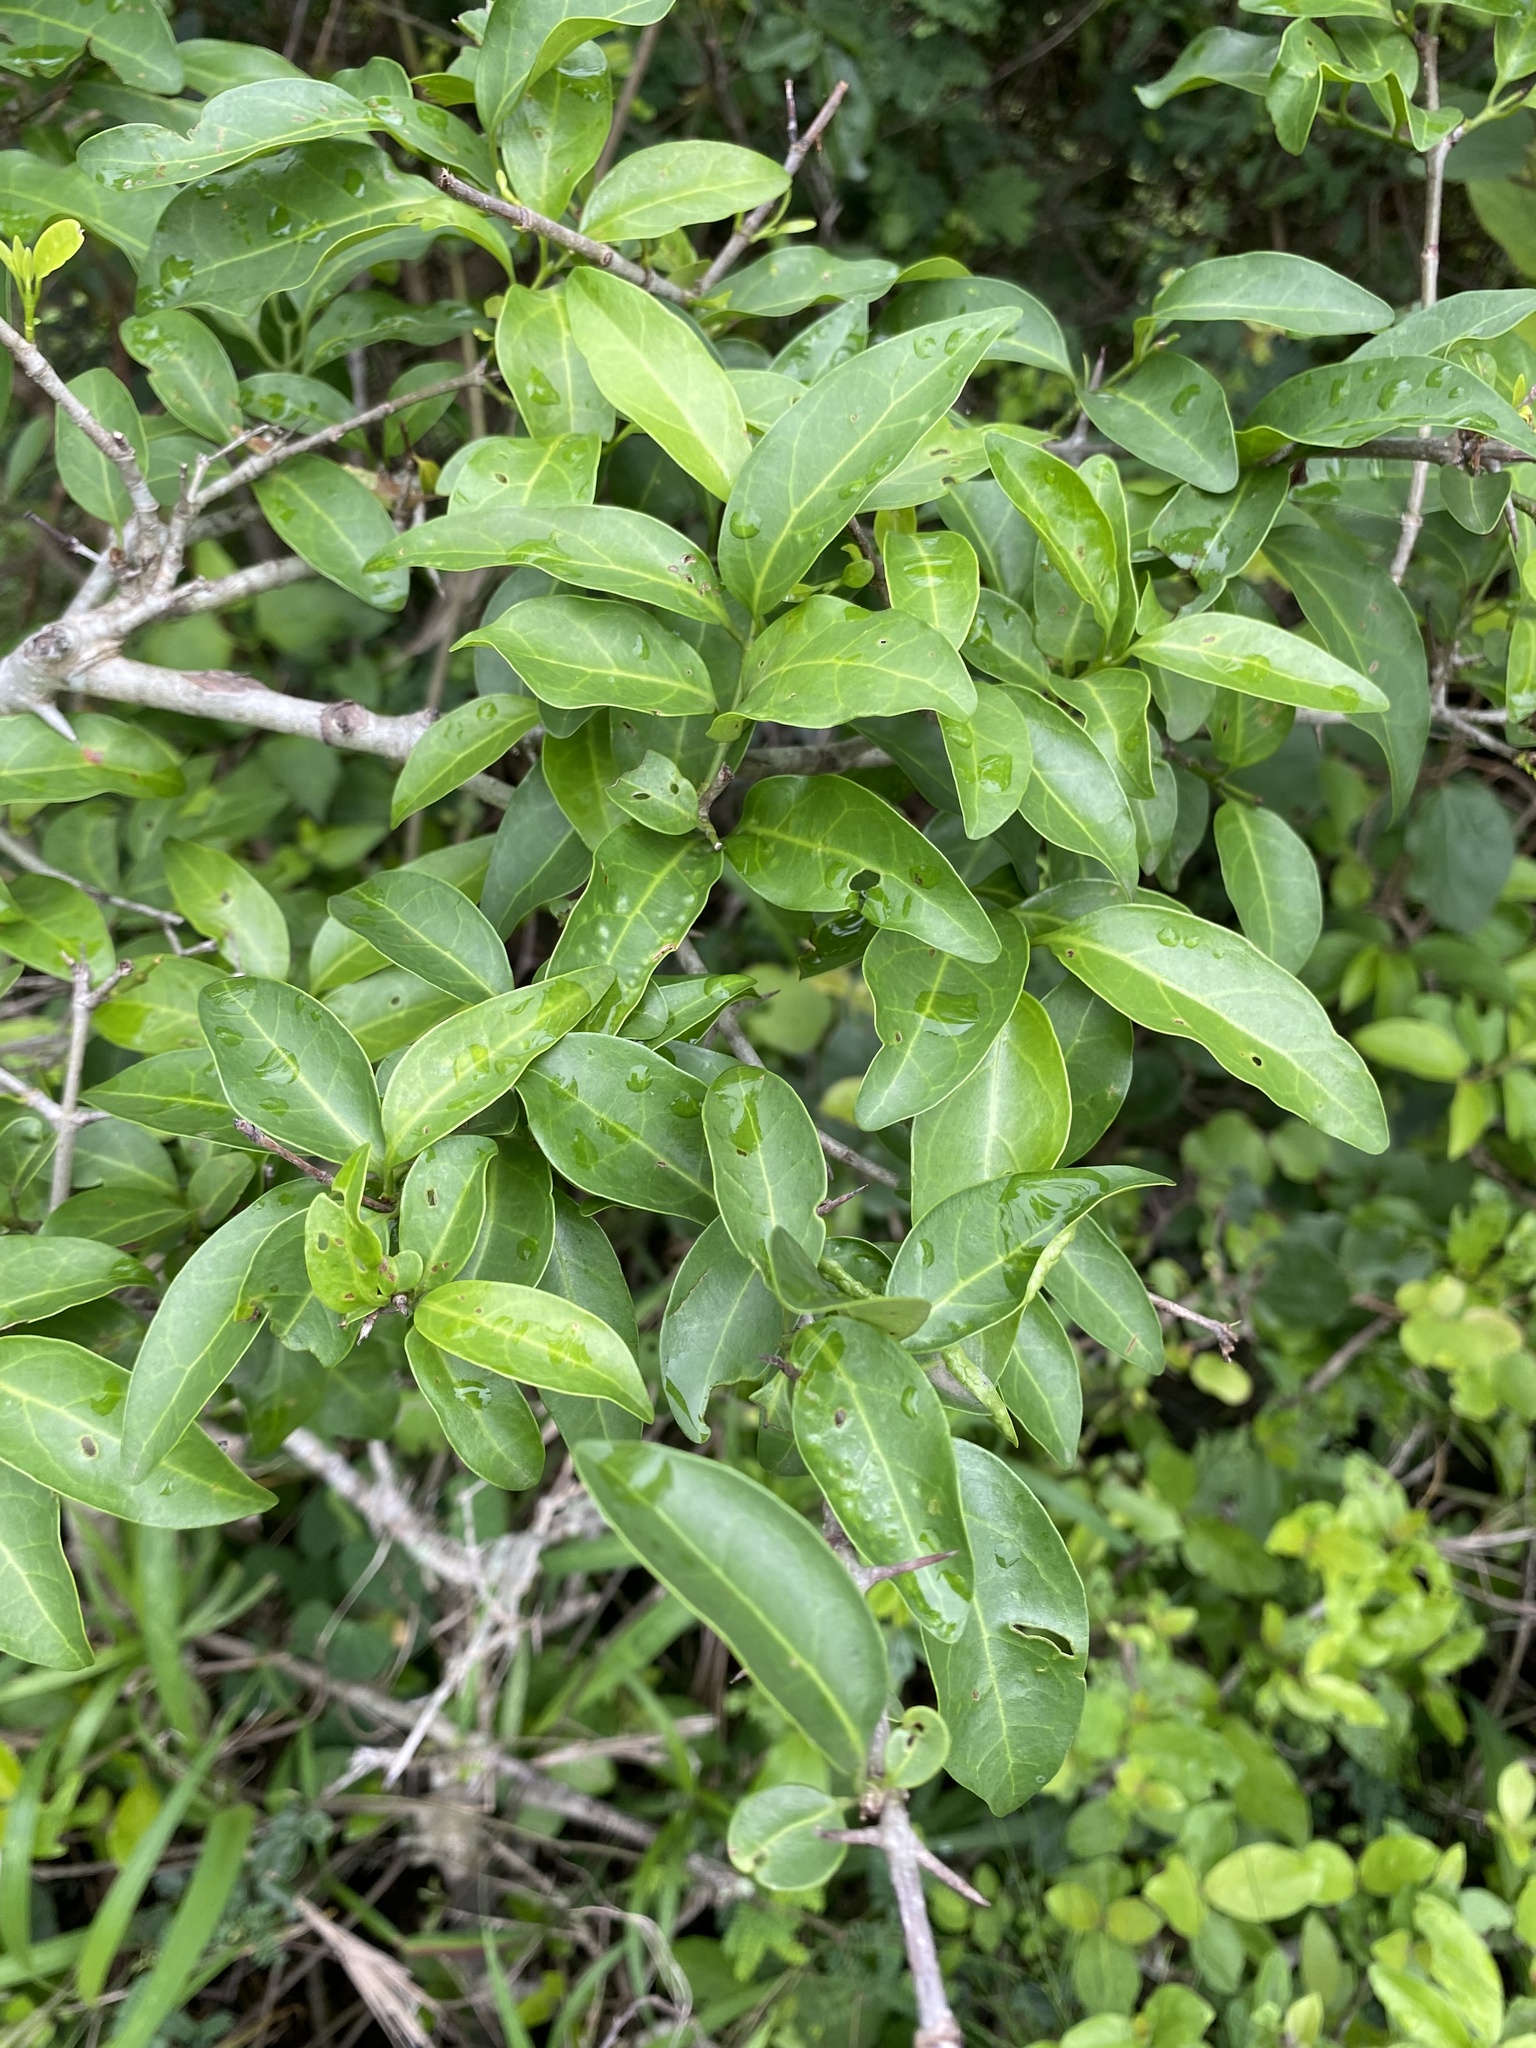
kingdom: Plantae
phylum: Tracheophyta
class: Magnoliopsida
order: Gentianales
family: Rubiaceae
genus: Canthium
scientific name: Canthium inerme
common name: Unarmed turkey-berry
